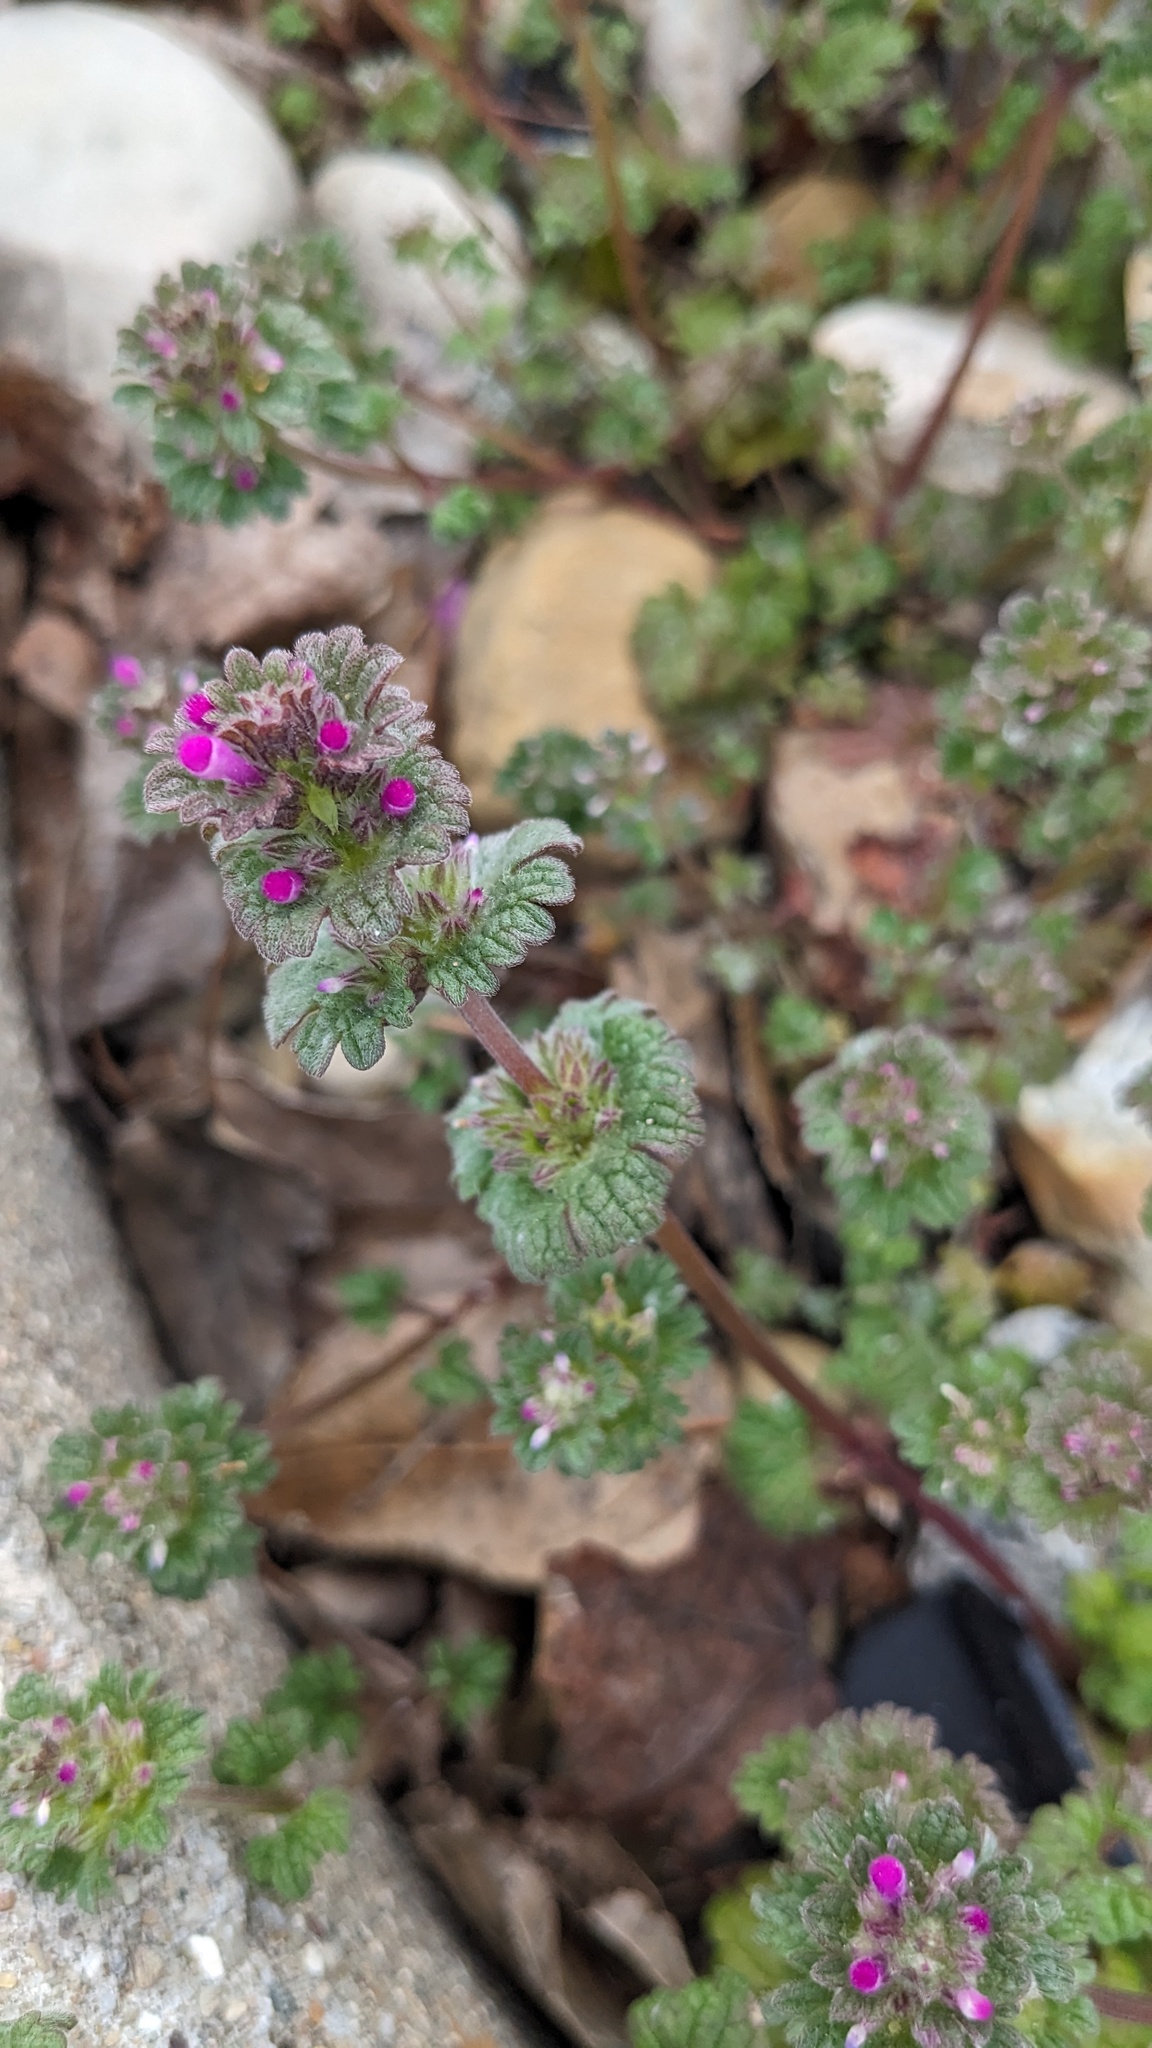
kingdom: Plantae
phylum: Tracheophyta
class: Magnoliopsida
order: Lamiales
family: Lamiaceae
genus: Lamium
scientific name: Lamium amplexicaule
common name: Henbit dead-nettle
